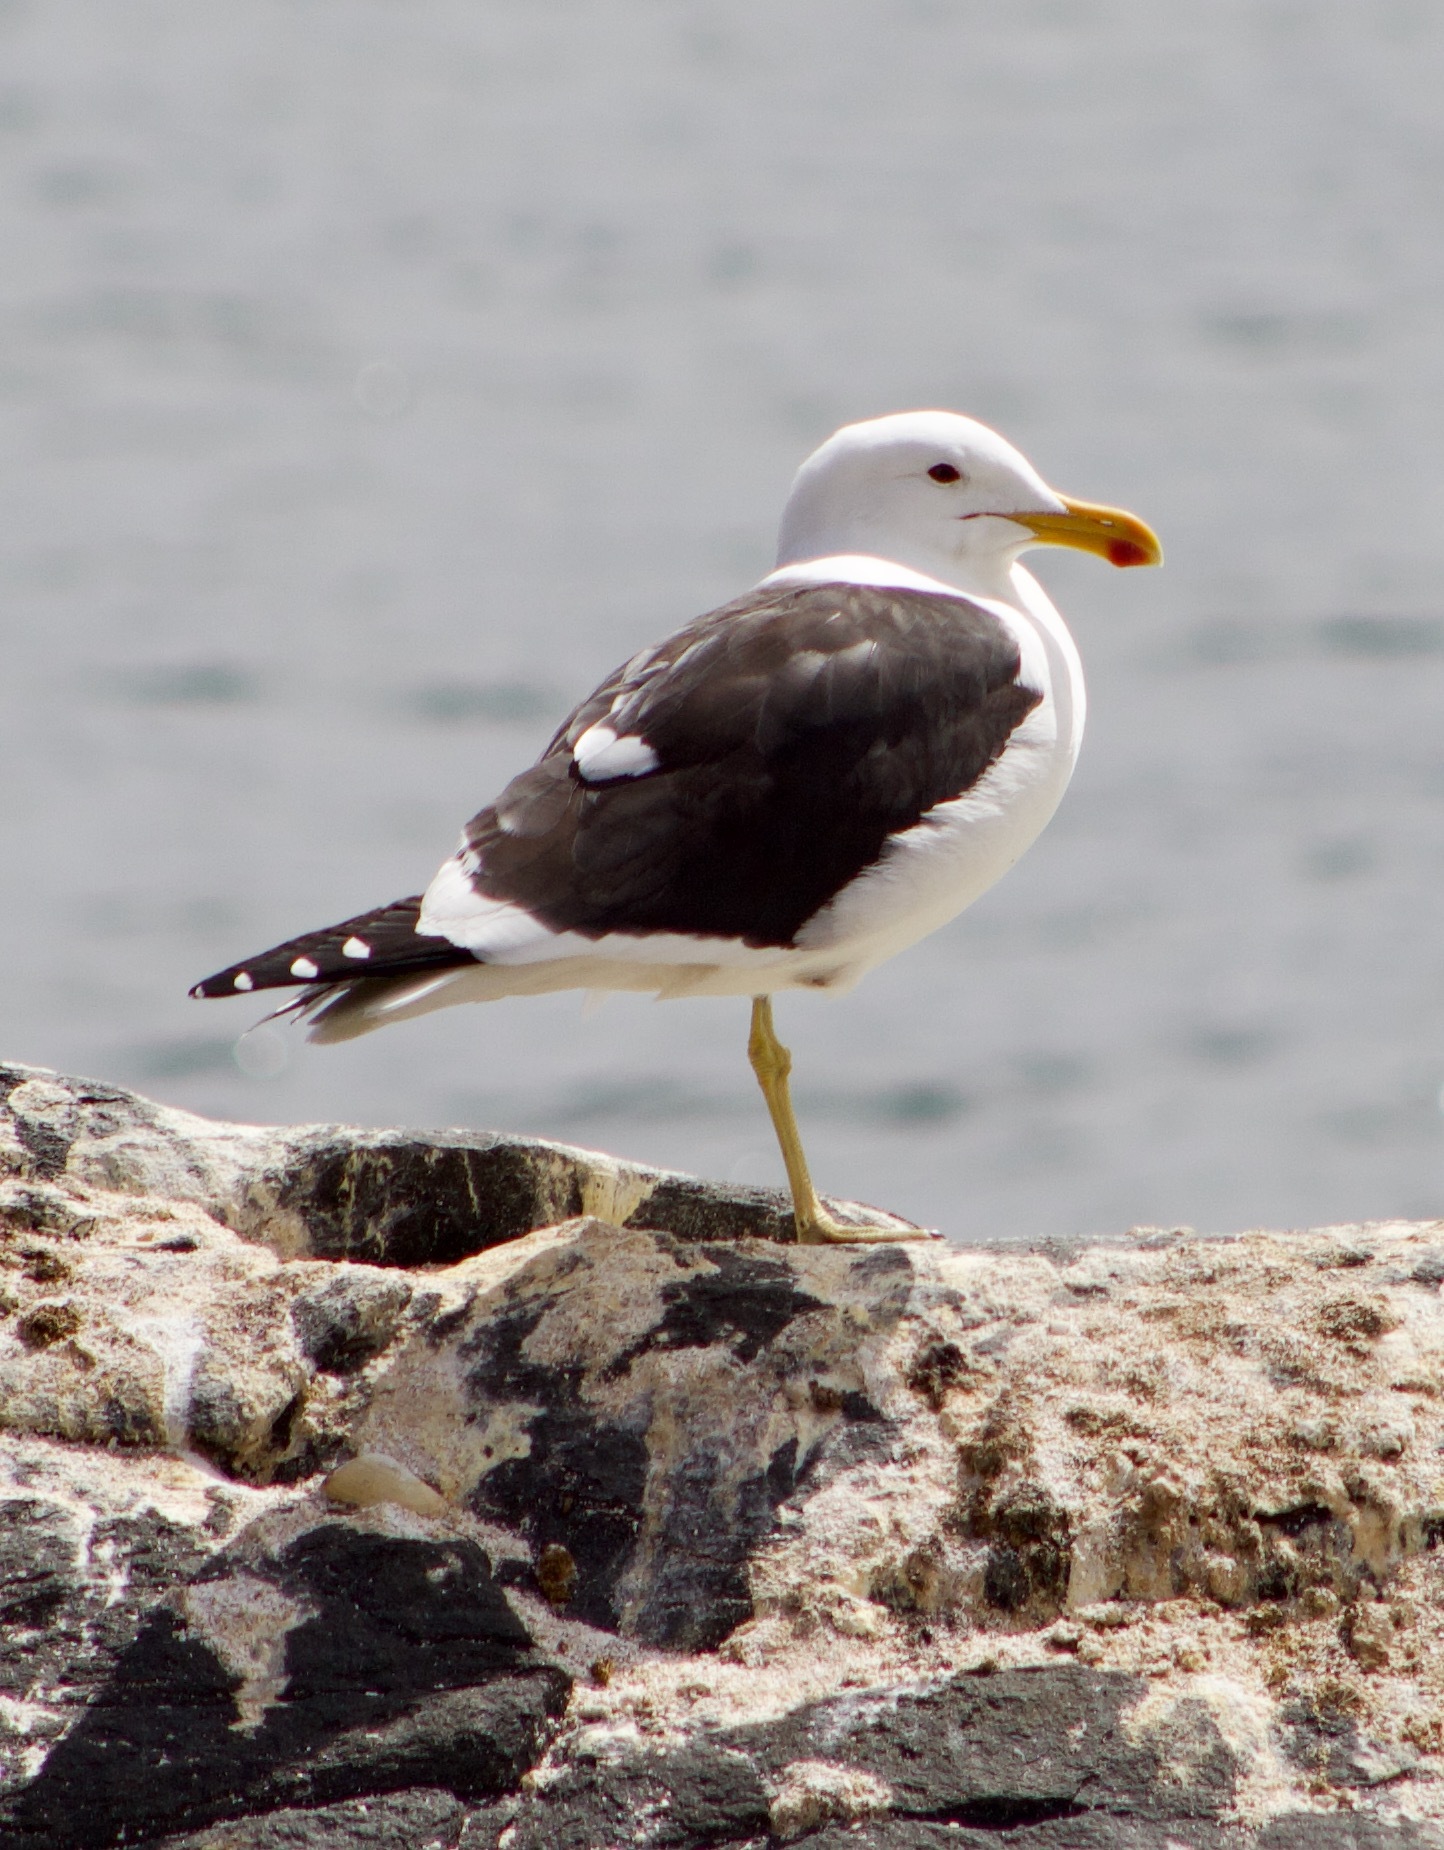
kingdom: Animalia
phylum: Chordata
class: Aves
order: Charadriiformes
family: Laridae
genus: Larus
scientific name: Larus dominicanus
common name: Kelp gull
